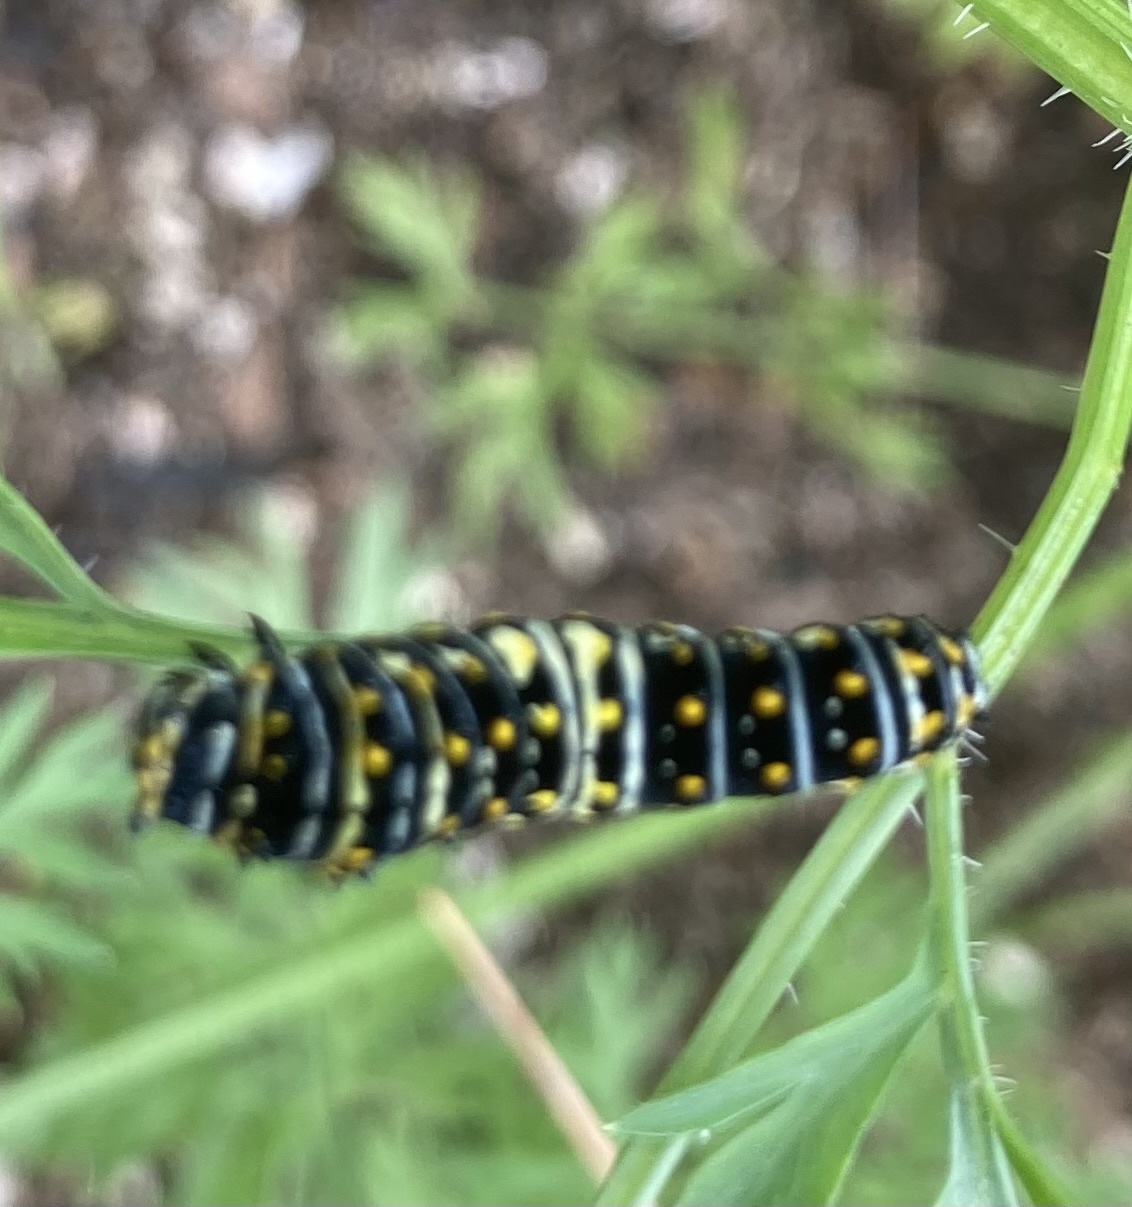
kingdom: Animalia
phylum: Arthropoda
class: Insecta
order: Lepidoptera
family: Papilionidae
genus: Papilio
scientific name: Papilio polyxenes
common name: Black swallowtail
